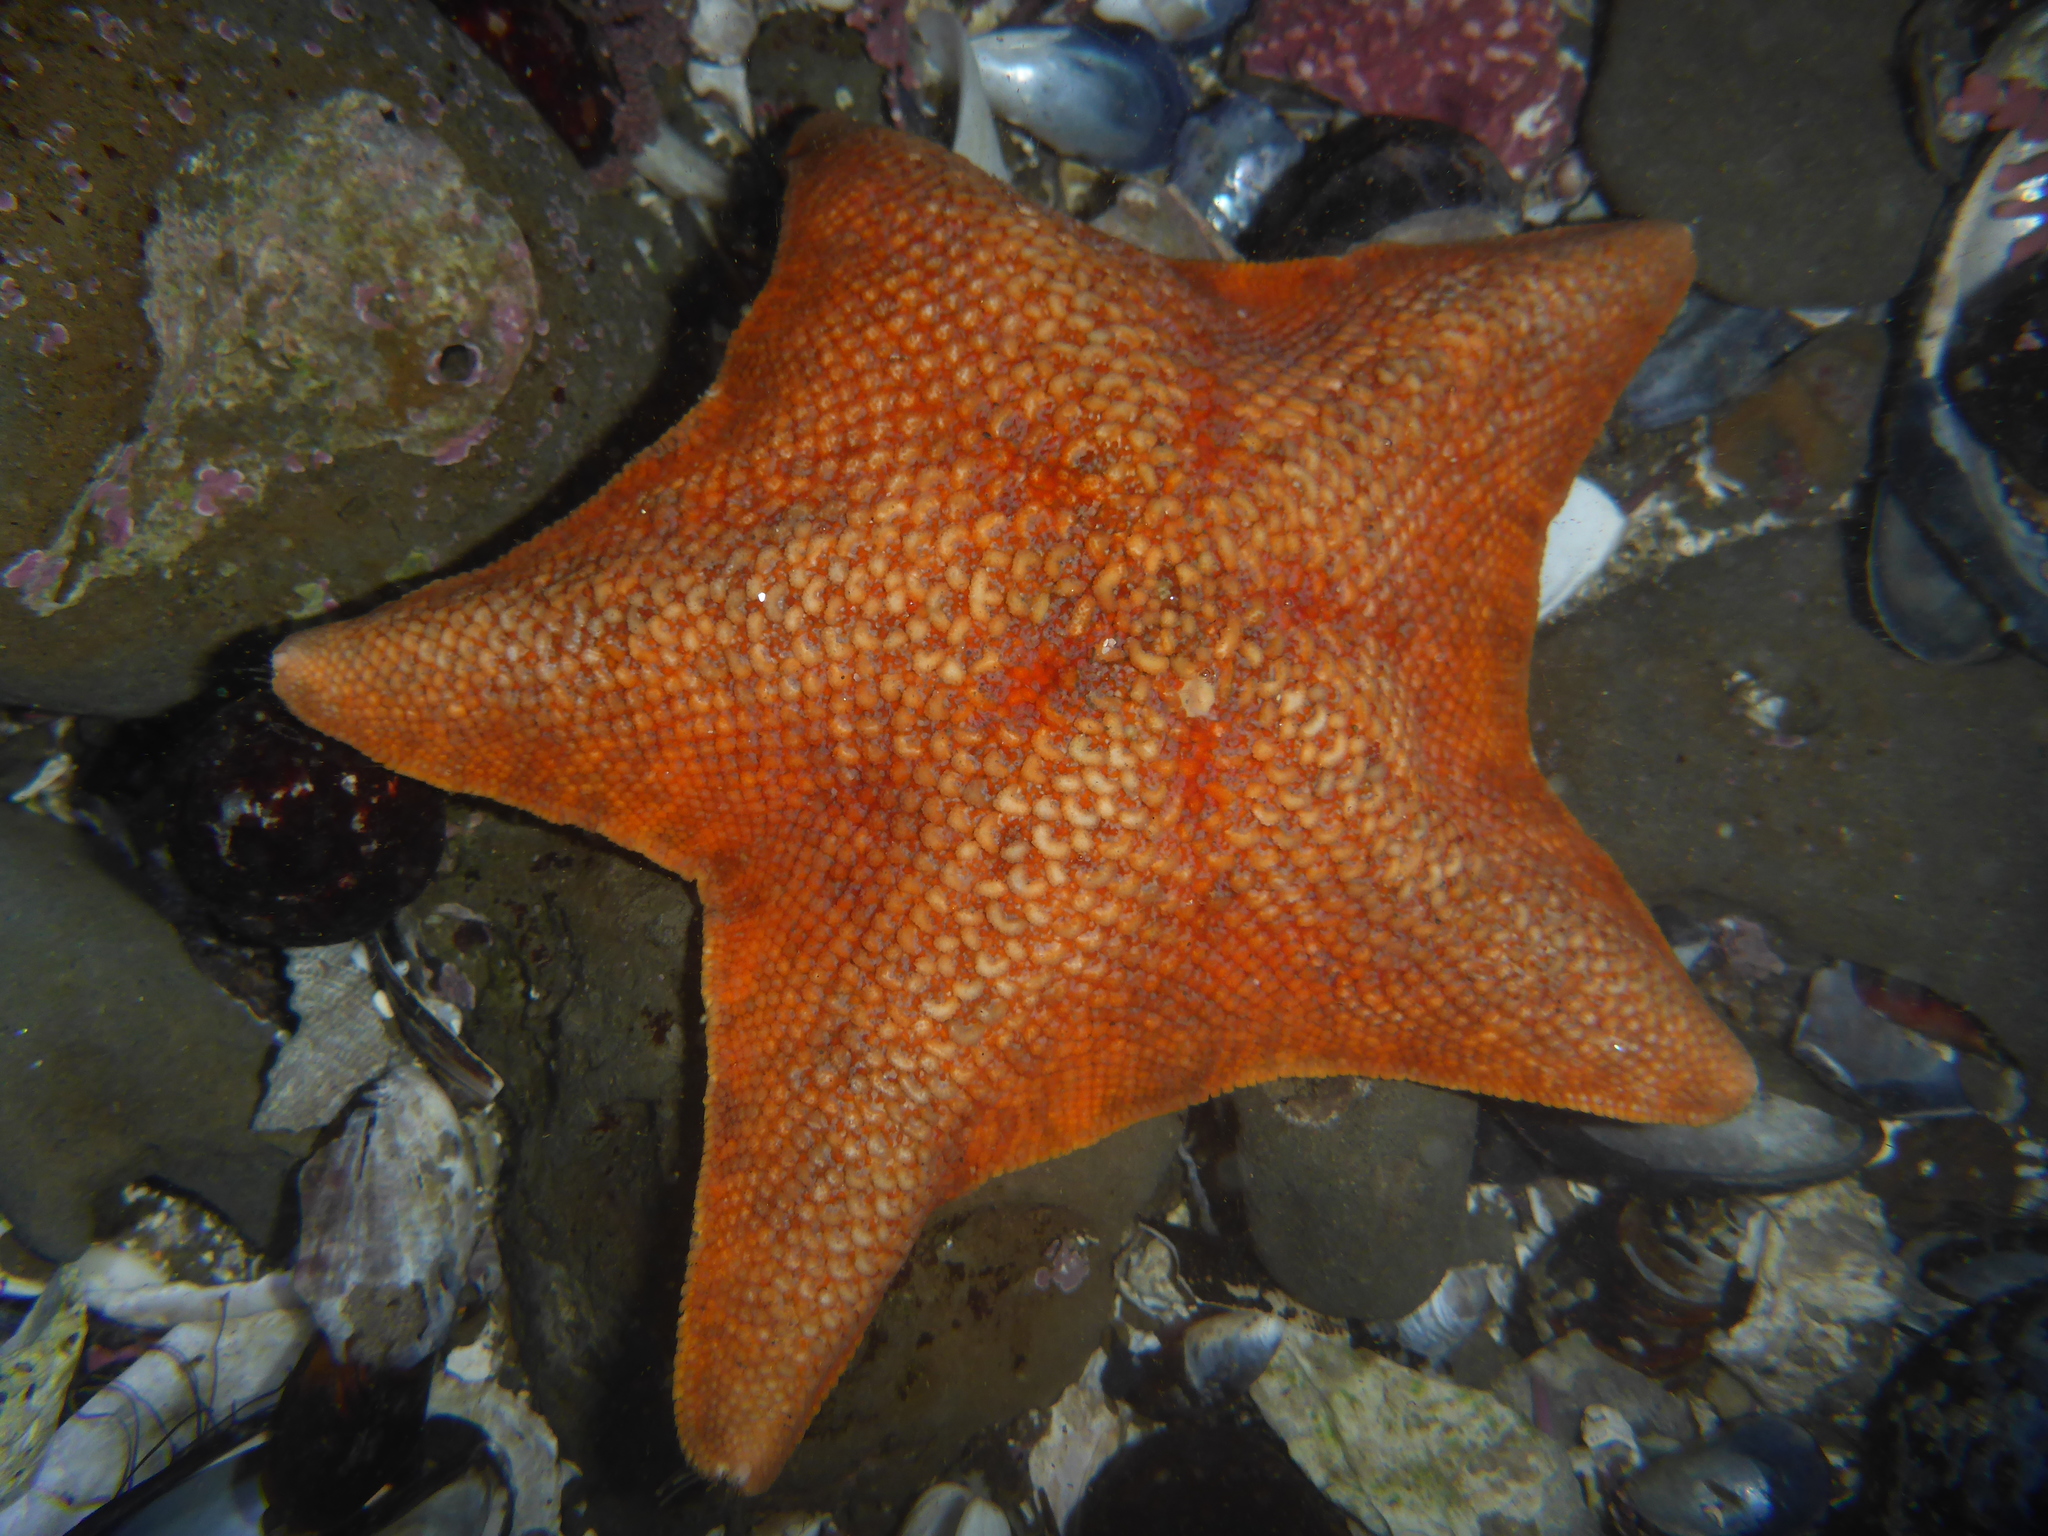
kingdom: Animalia
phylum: Echinodermata
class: Asteroidea
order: Valvatida
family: Asterinidae
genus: Patiria
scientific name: Patiria miniata
